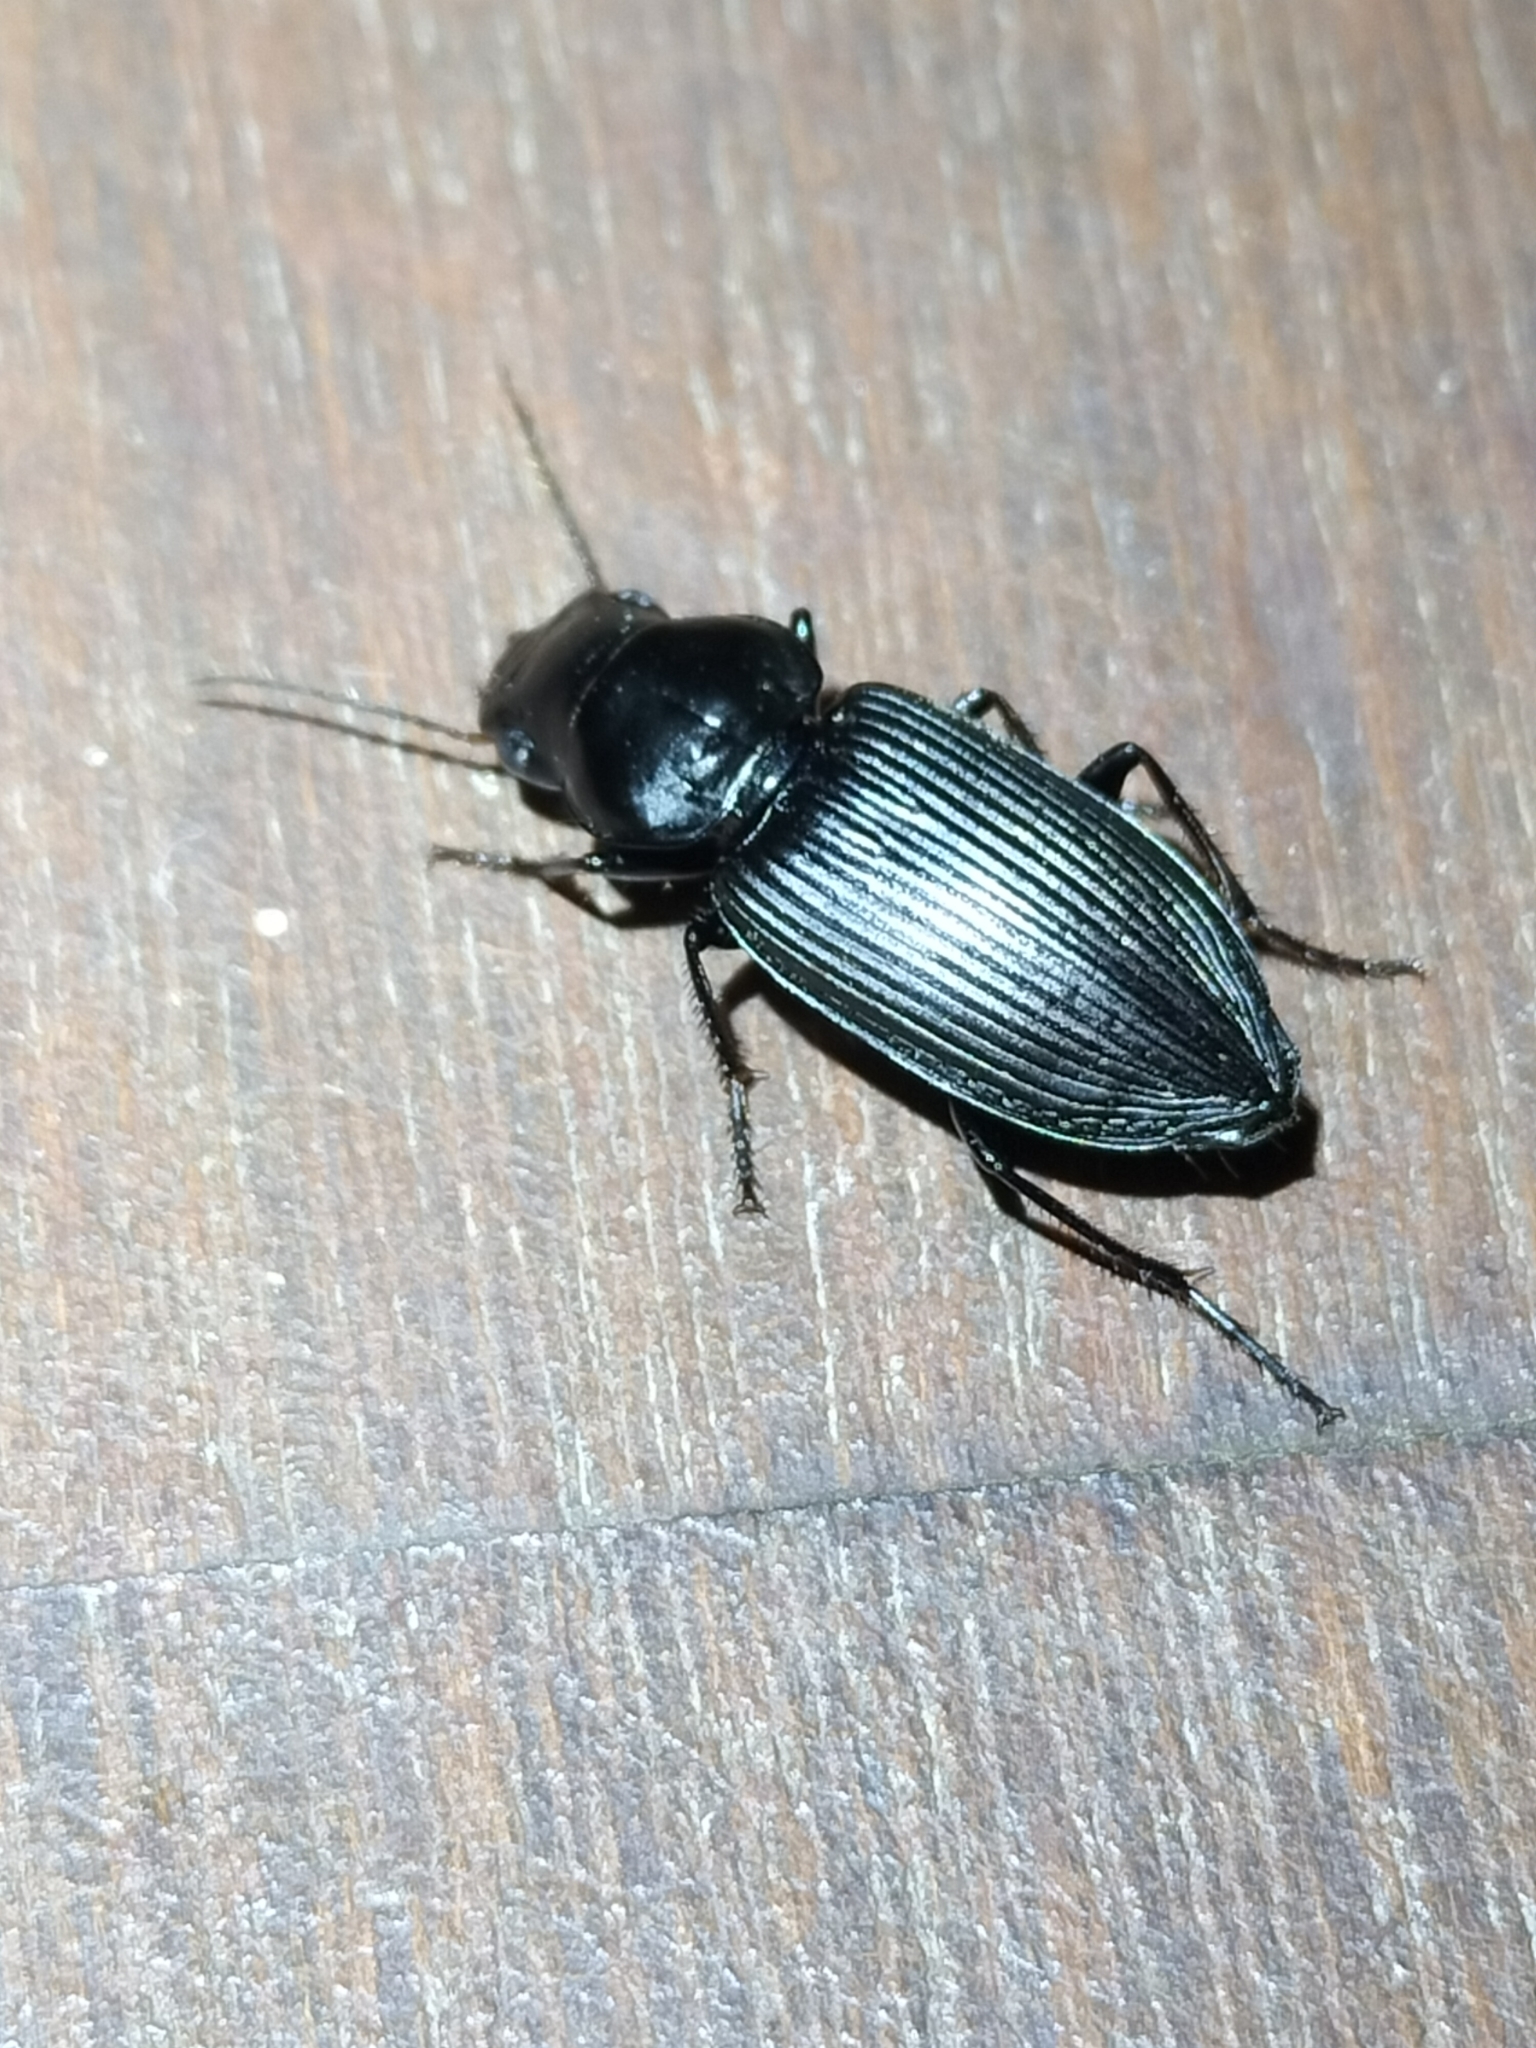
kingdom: Animalia
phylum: Arthropoda
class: Insecta
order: Coleoptera
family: Carabidae
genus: Gnathaphanus
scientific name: Gnathaphanus philippensis
